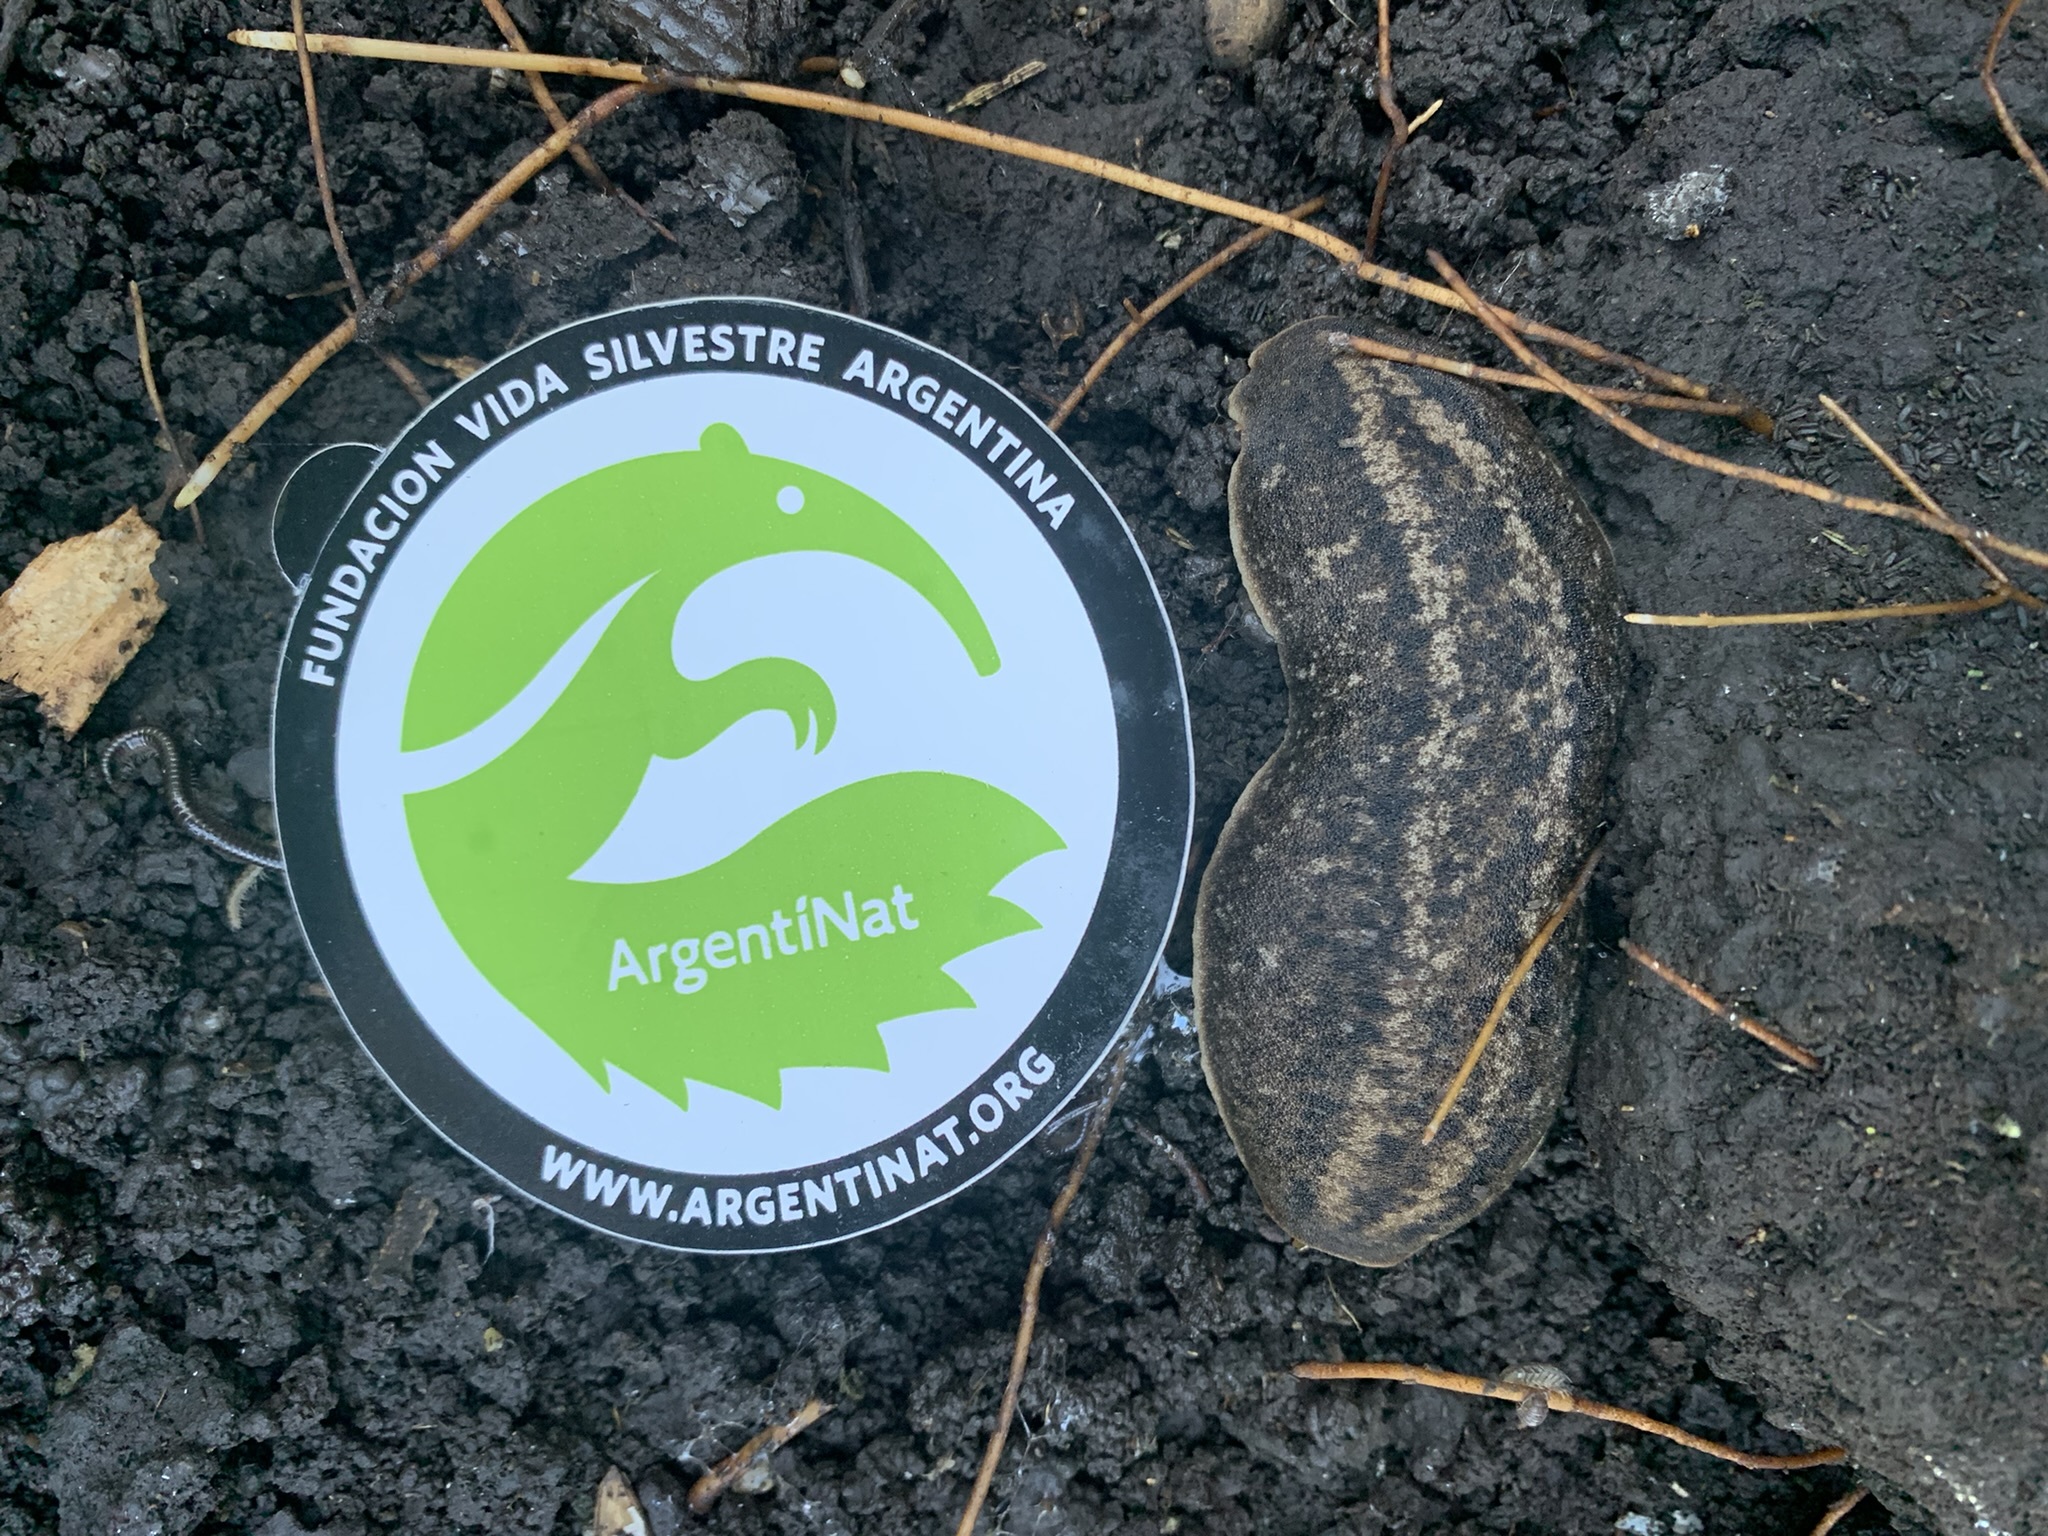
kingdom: Animalia
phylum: Mollusca
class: Gastropoda
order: Systellommatophora
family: Veronicellidae
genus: Phyllocaulis
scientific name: Phyllocaulis soleiformis
